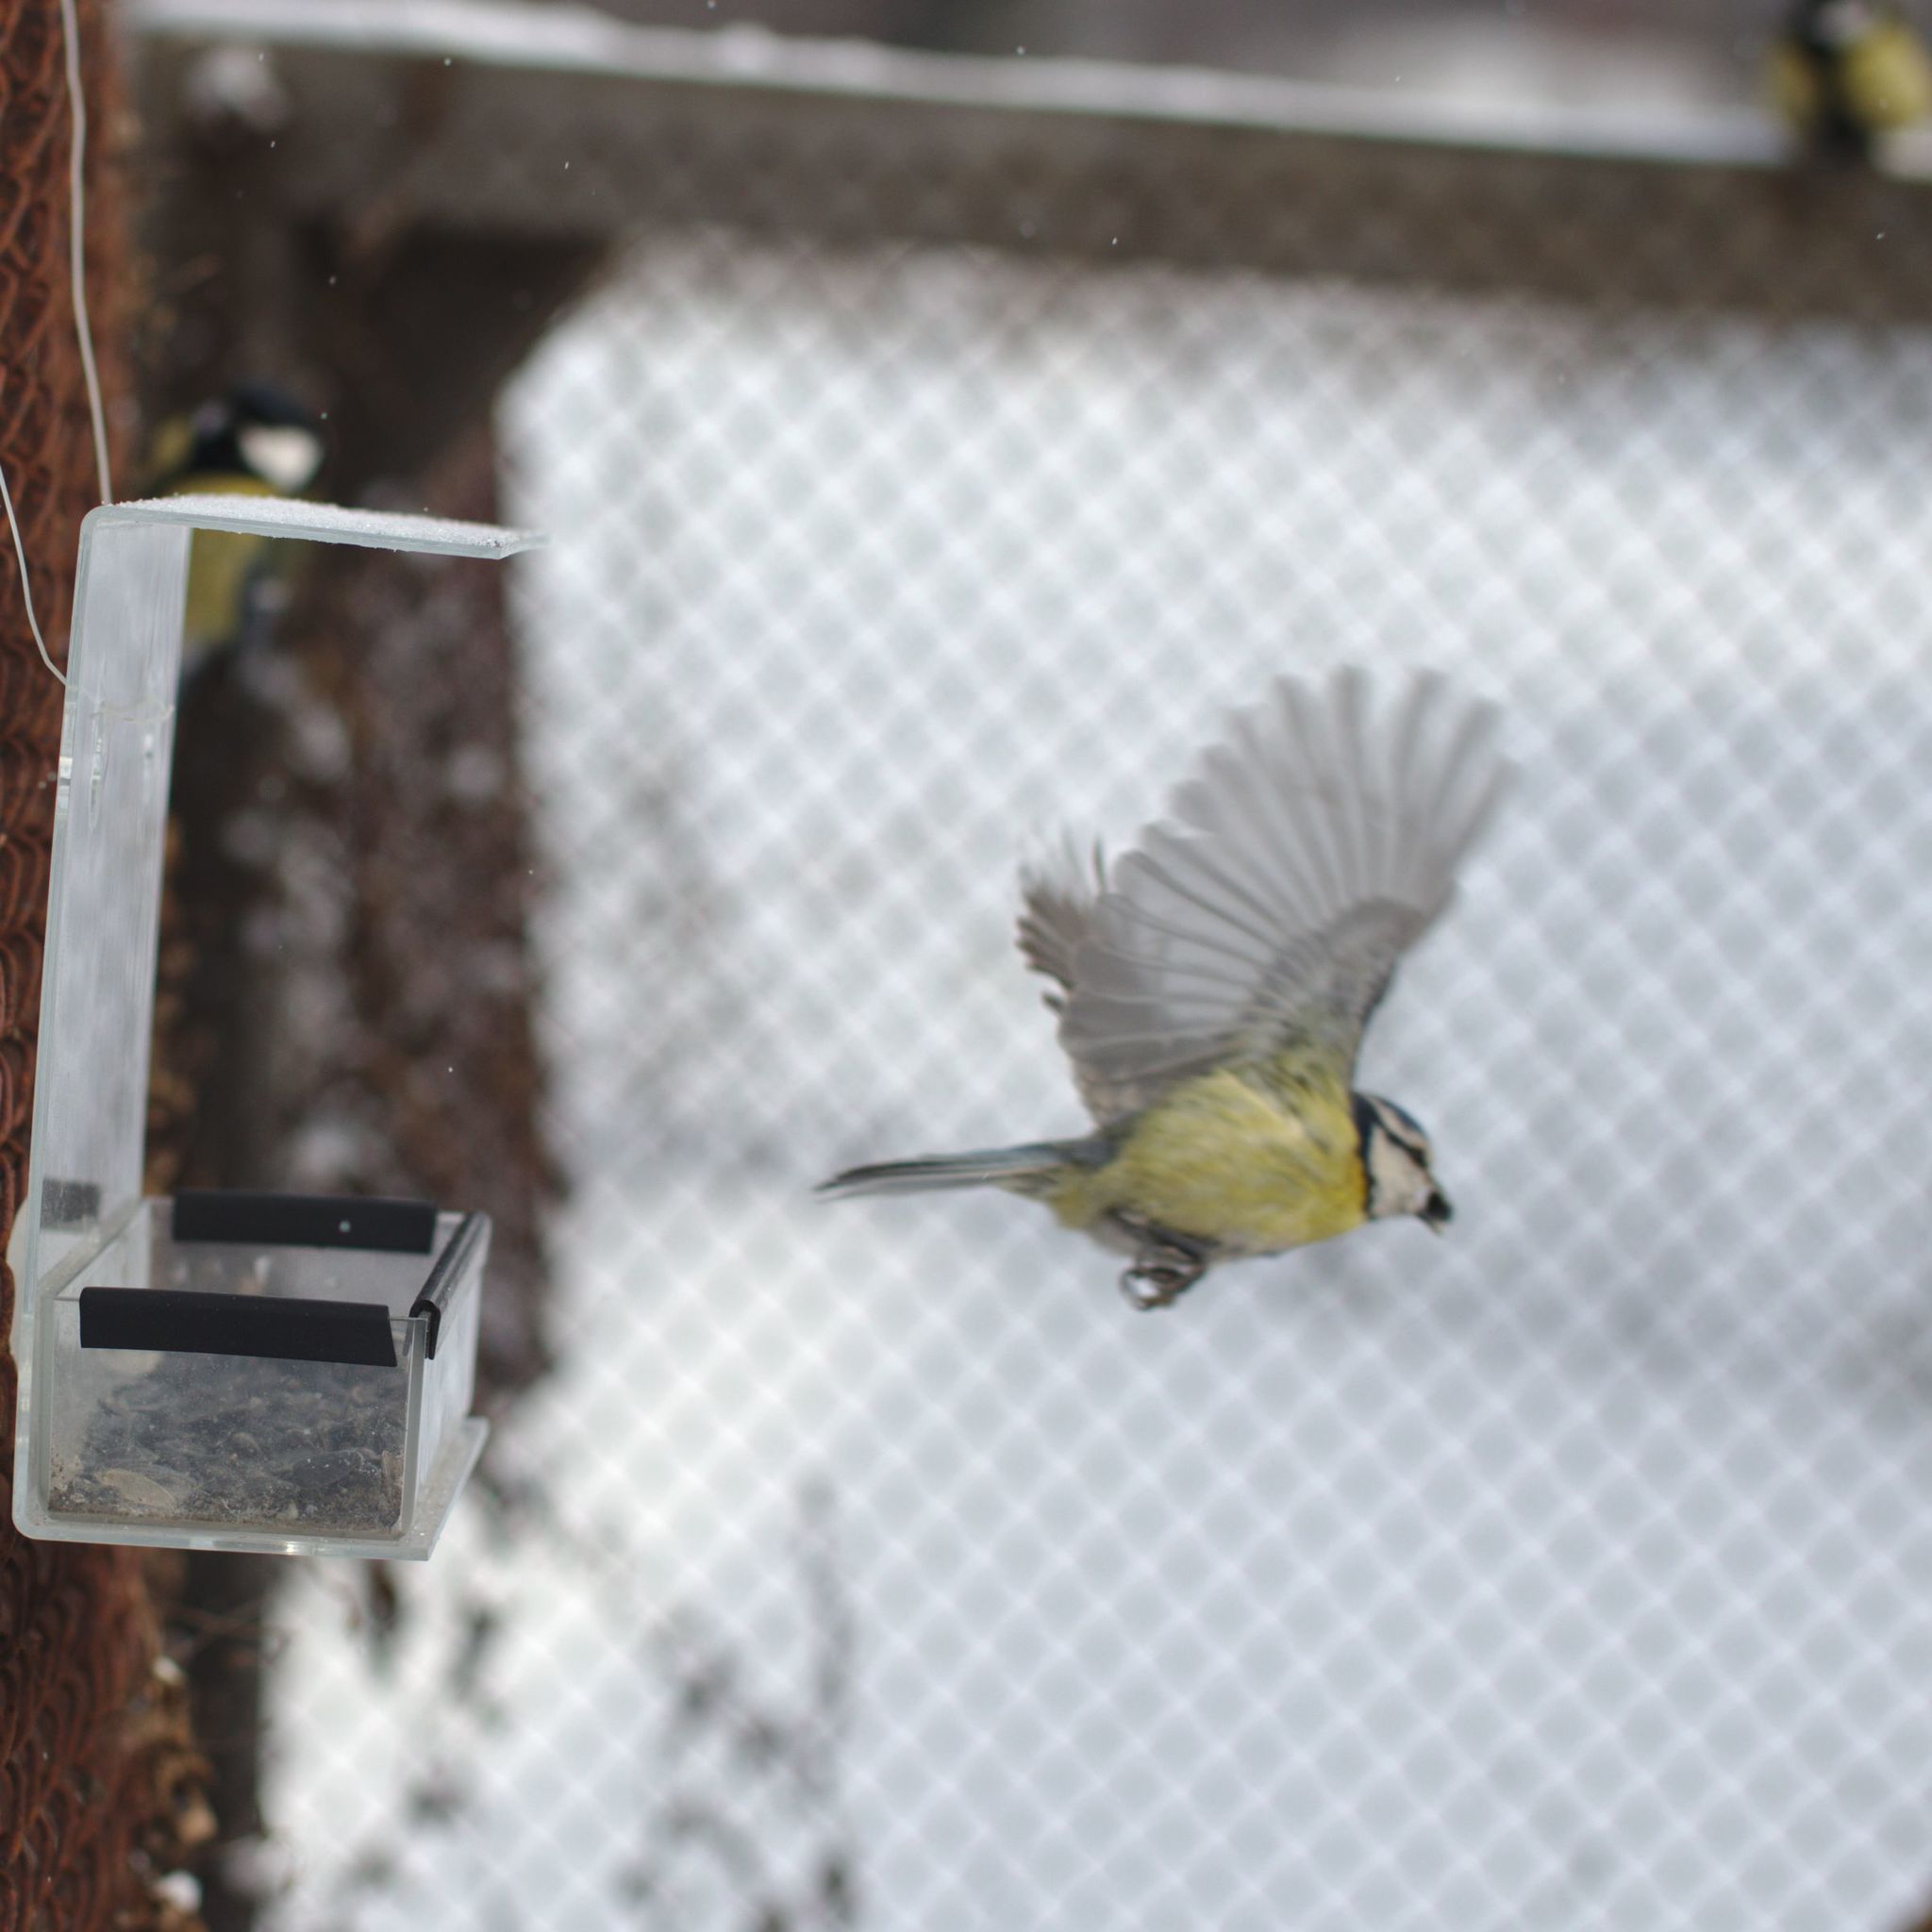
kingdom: Animalia
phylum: Chordata
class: Aves
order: Passeriformes
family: Paridae
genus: Cyanistes
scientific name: Cyanistes caeruleus
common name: Eurasian blue tit
